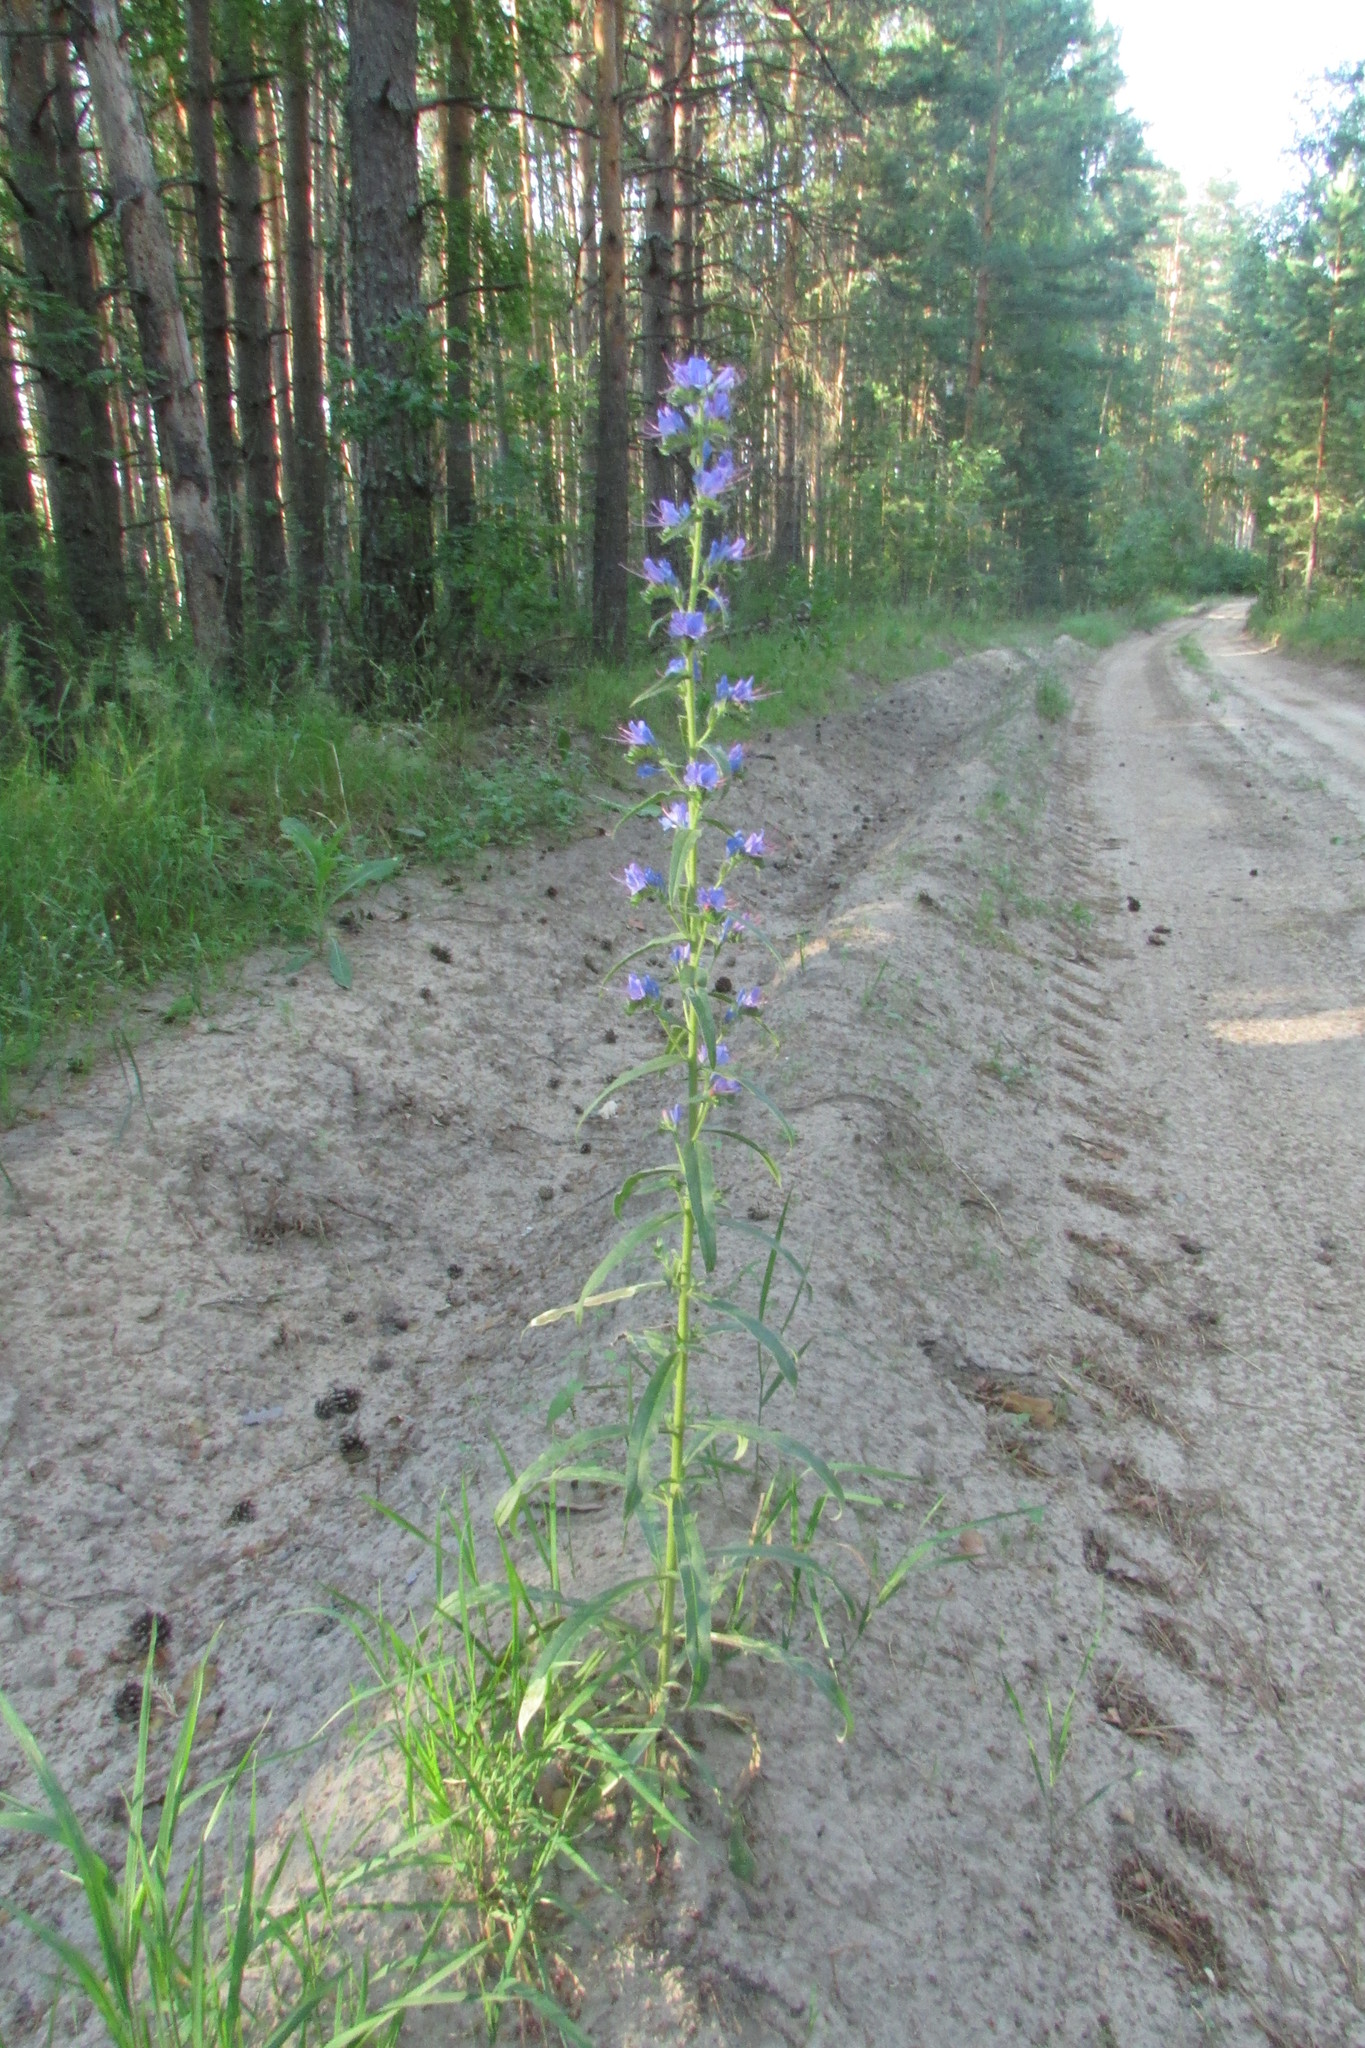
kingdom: Plantae
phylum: Tracheophyta
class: Magnoliopsida
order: Boraginales
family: Boraginaceae
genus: Echium
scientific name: Echium vulgare
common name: Common viper's bugloss
